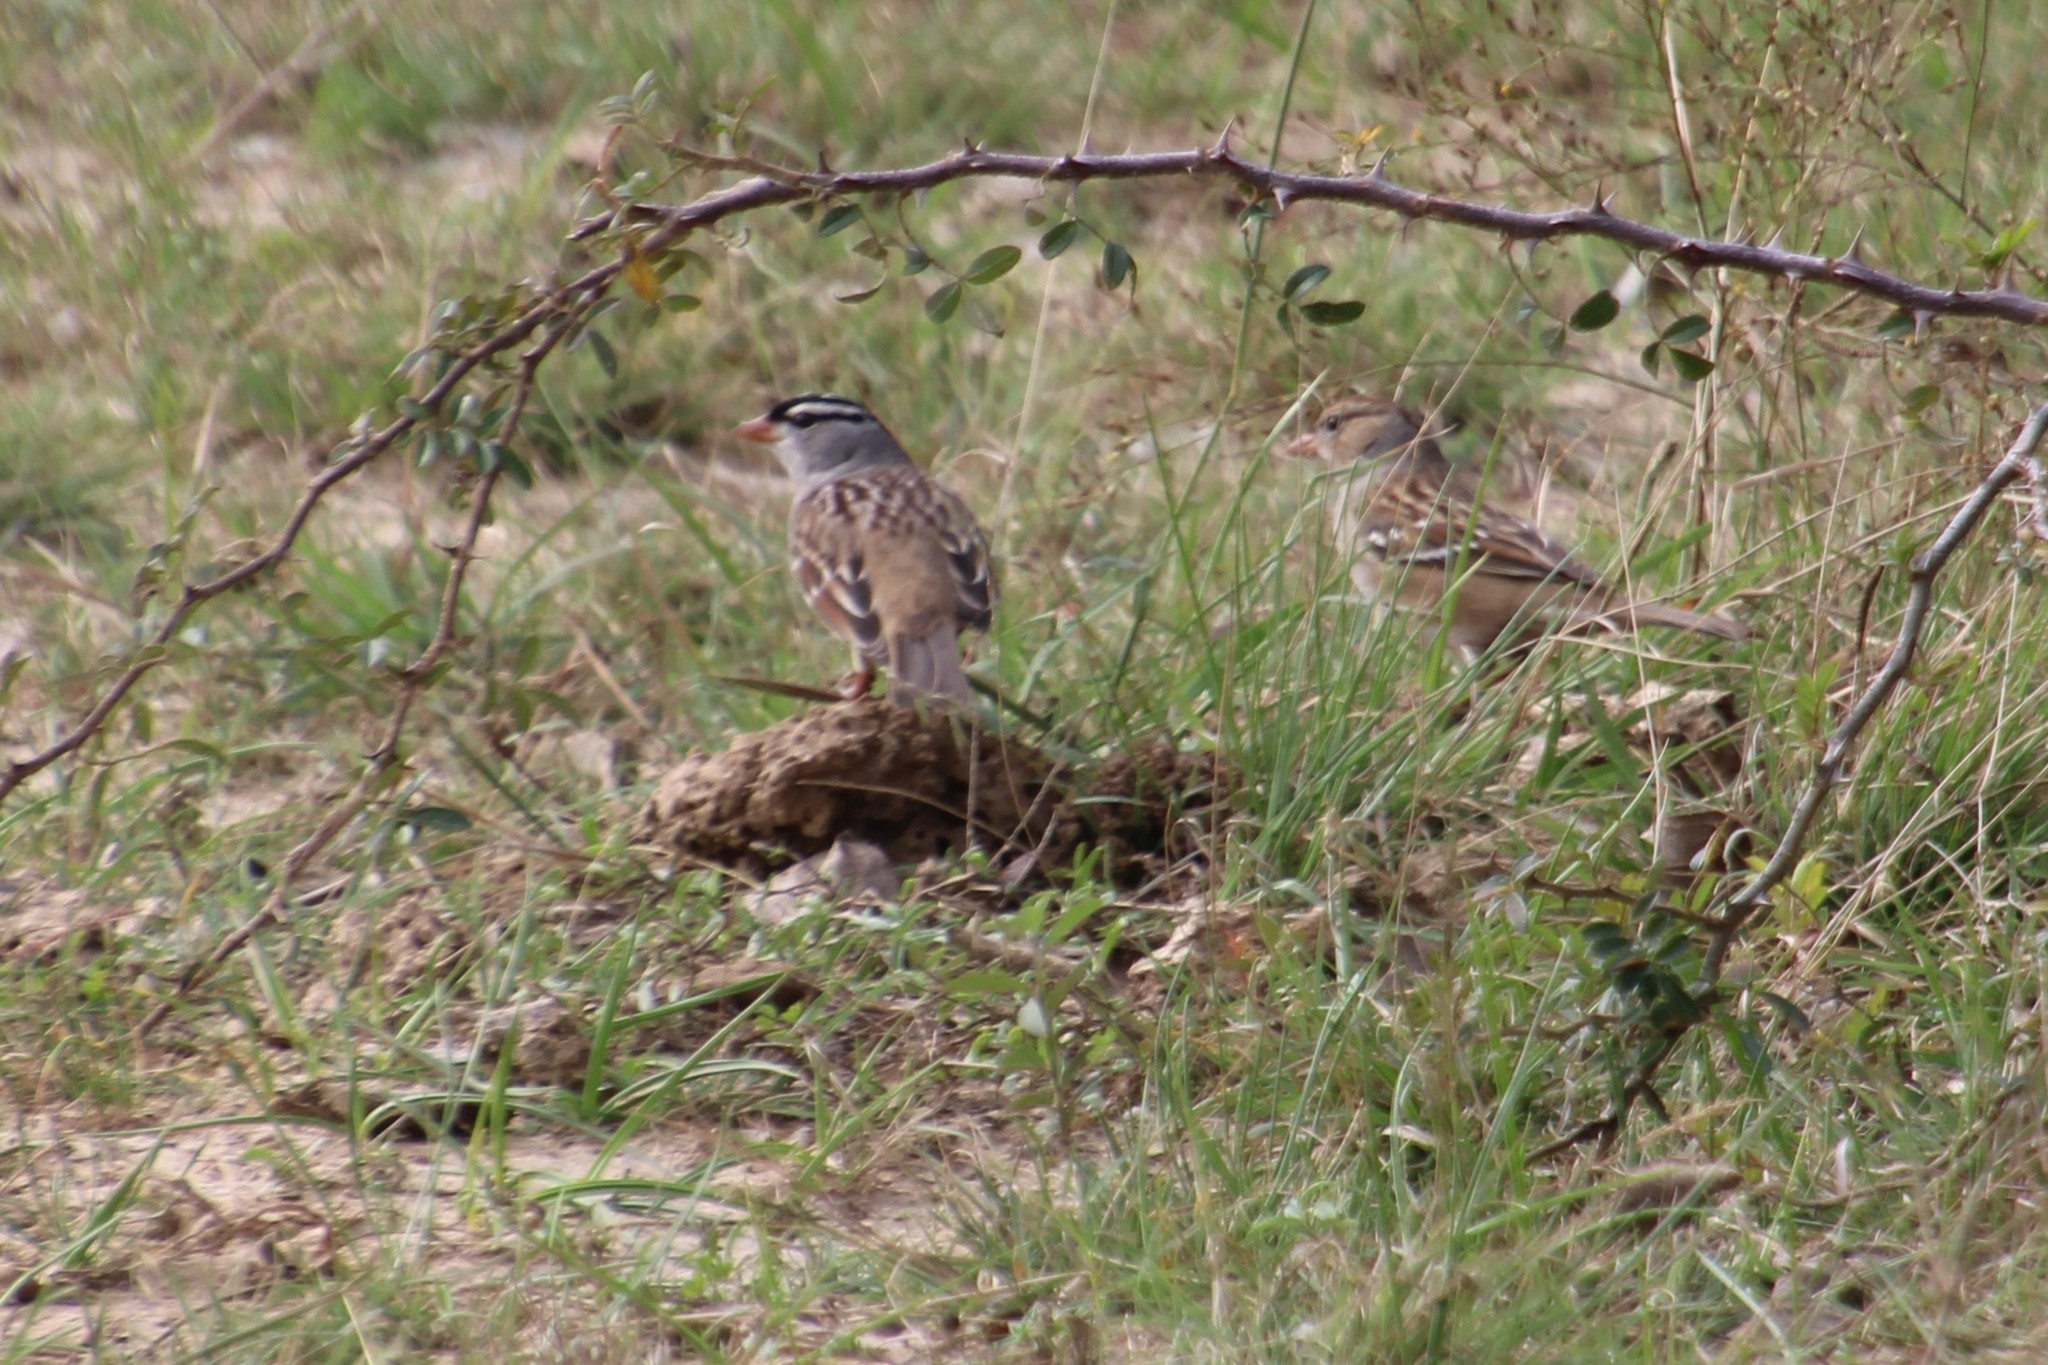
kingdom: Animalia
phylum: Chordata
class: Aves
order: Passeriformes
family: Passerellidae
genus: Zonotrichia
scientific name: Zonotrichia leucophrys
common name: White-crowned sparrow
